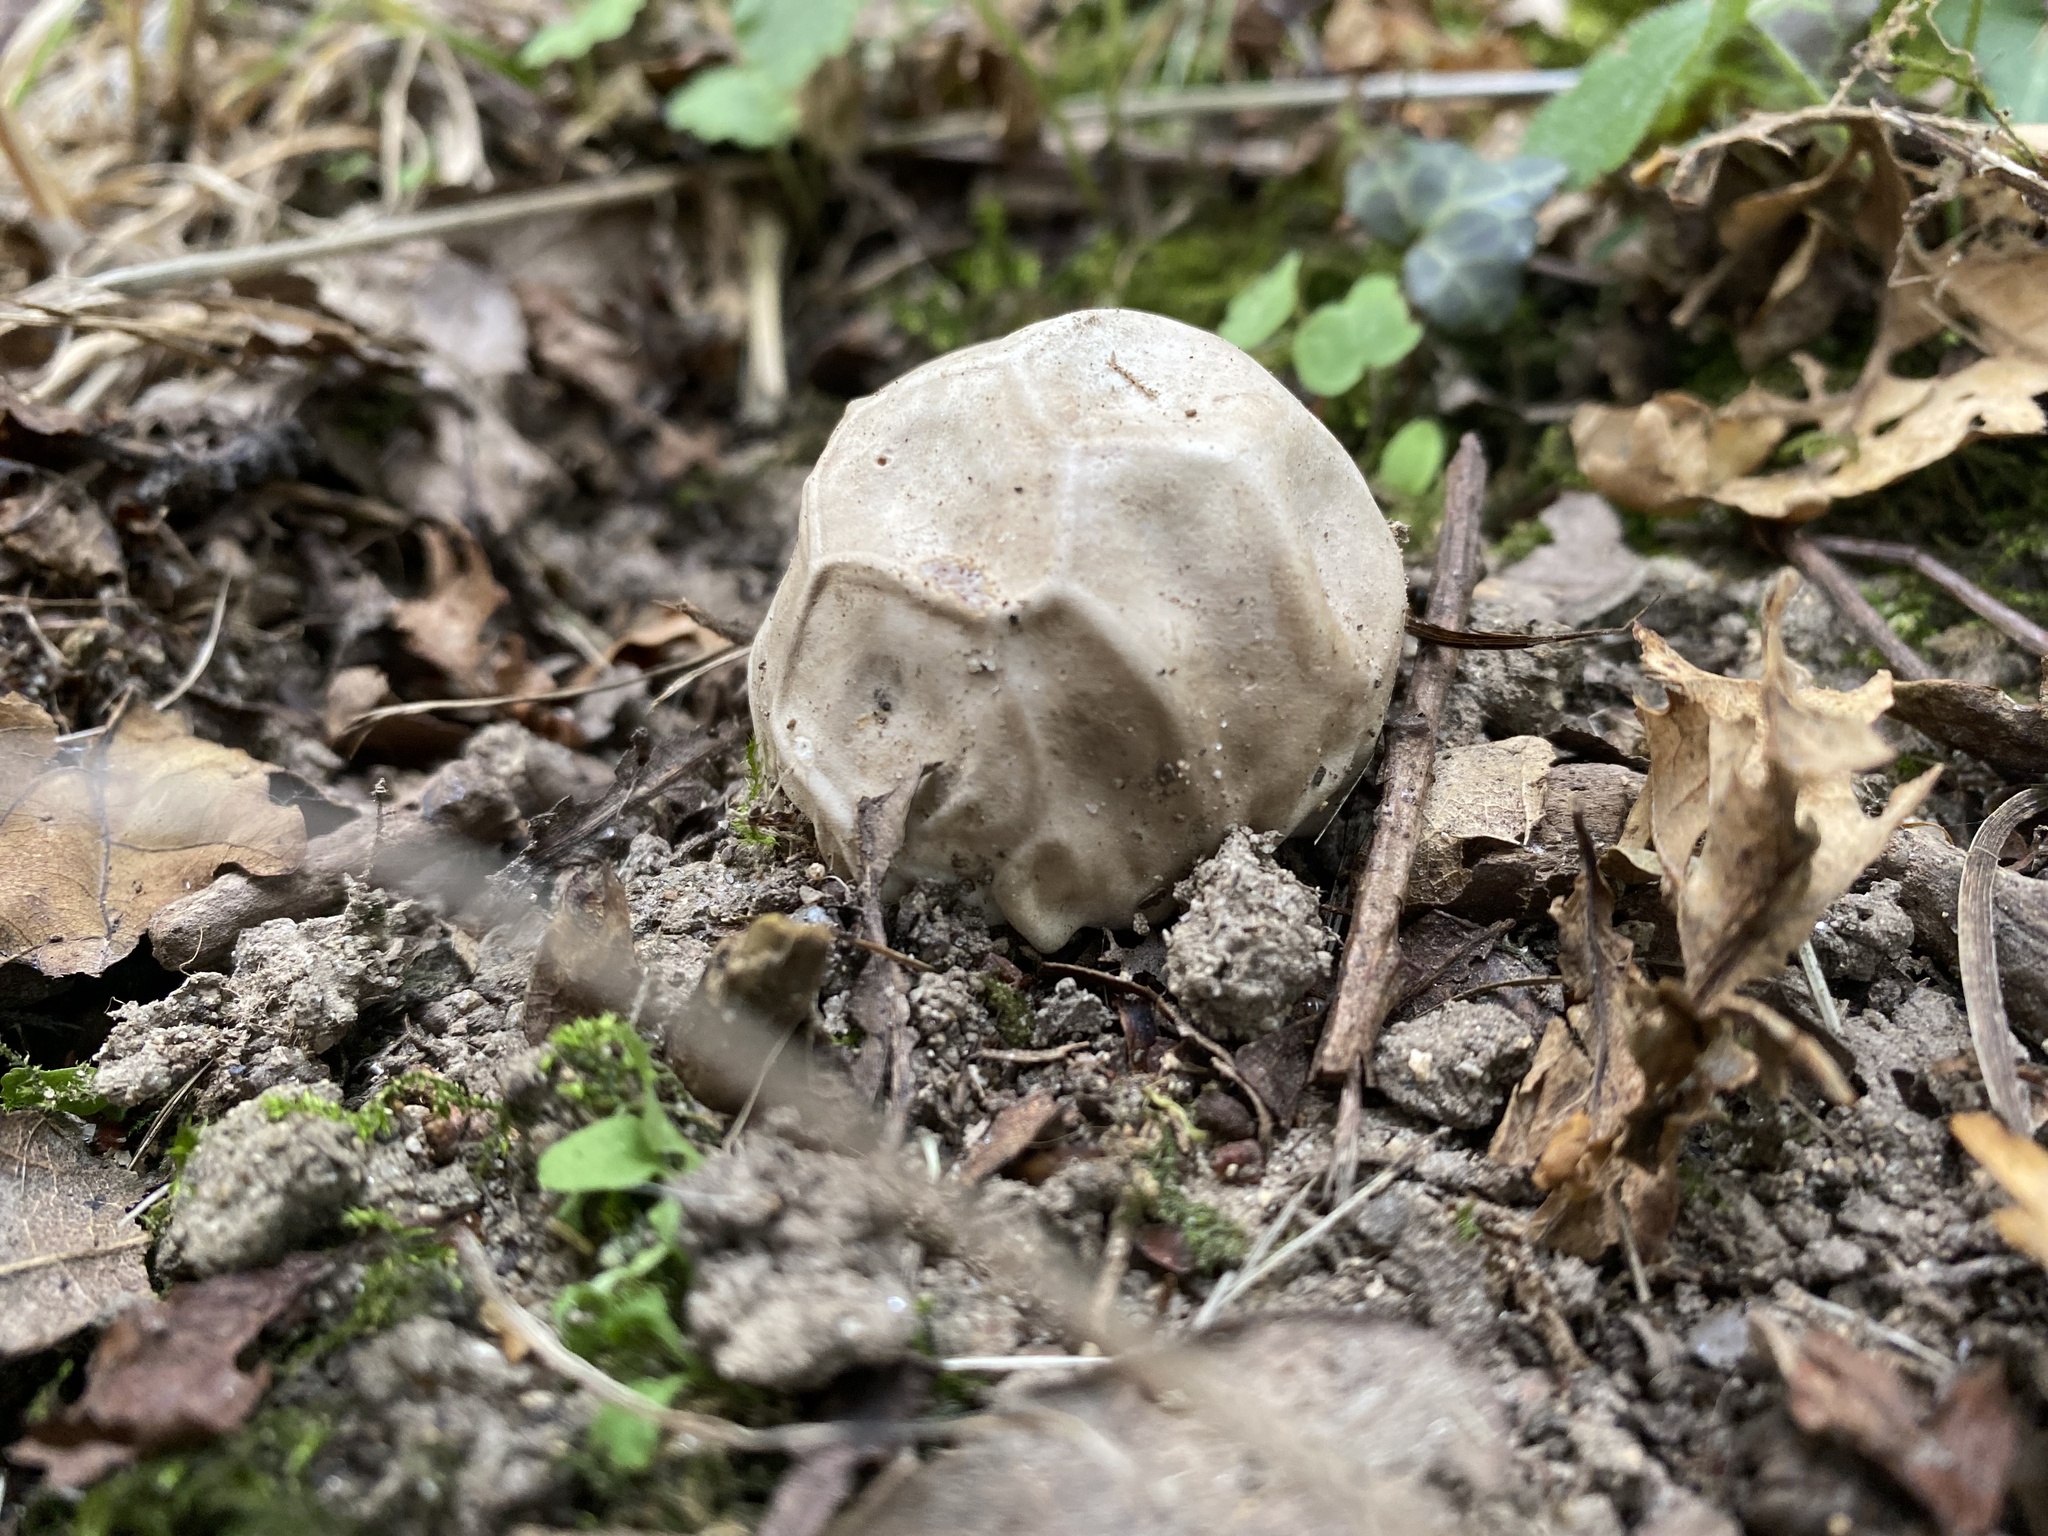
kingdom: Fungi
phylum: Basidiomycota
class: Agaricomycetes
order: Phallales
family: Phallaceae
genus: Clathrus
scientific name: Clathrus ruber
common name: Red cage
